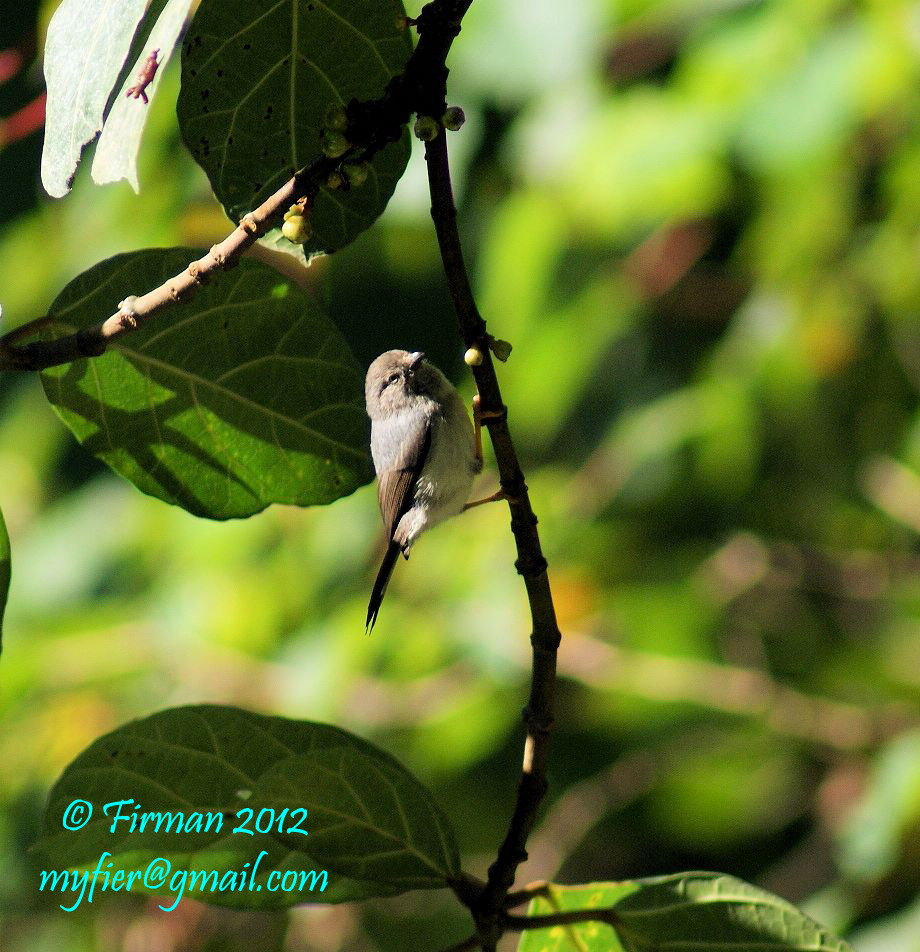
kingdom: Animalia
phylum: Chordata
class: Aves
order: Passeriformes
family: Aegithalidae
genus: Psaltria
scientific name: Psaltria exilis
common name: Pygmy bushtit
